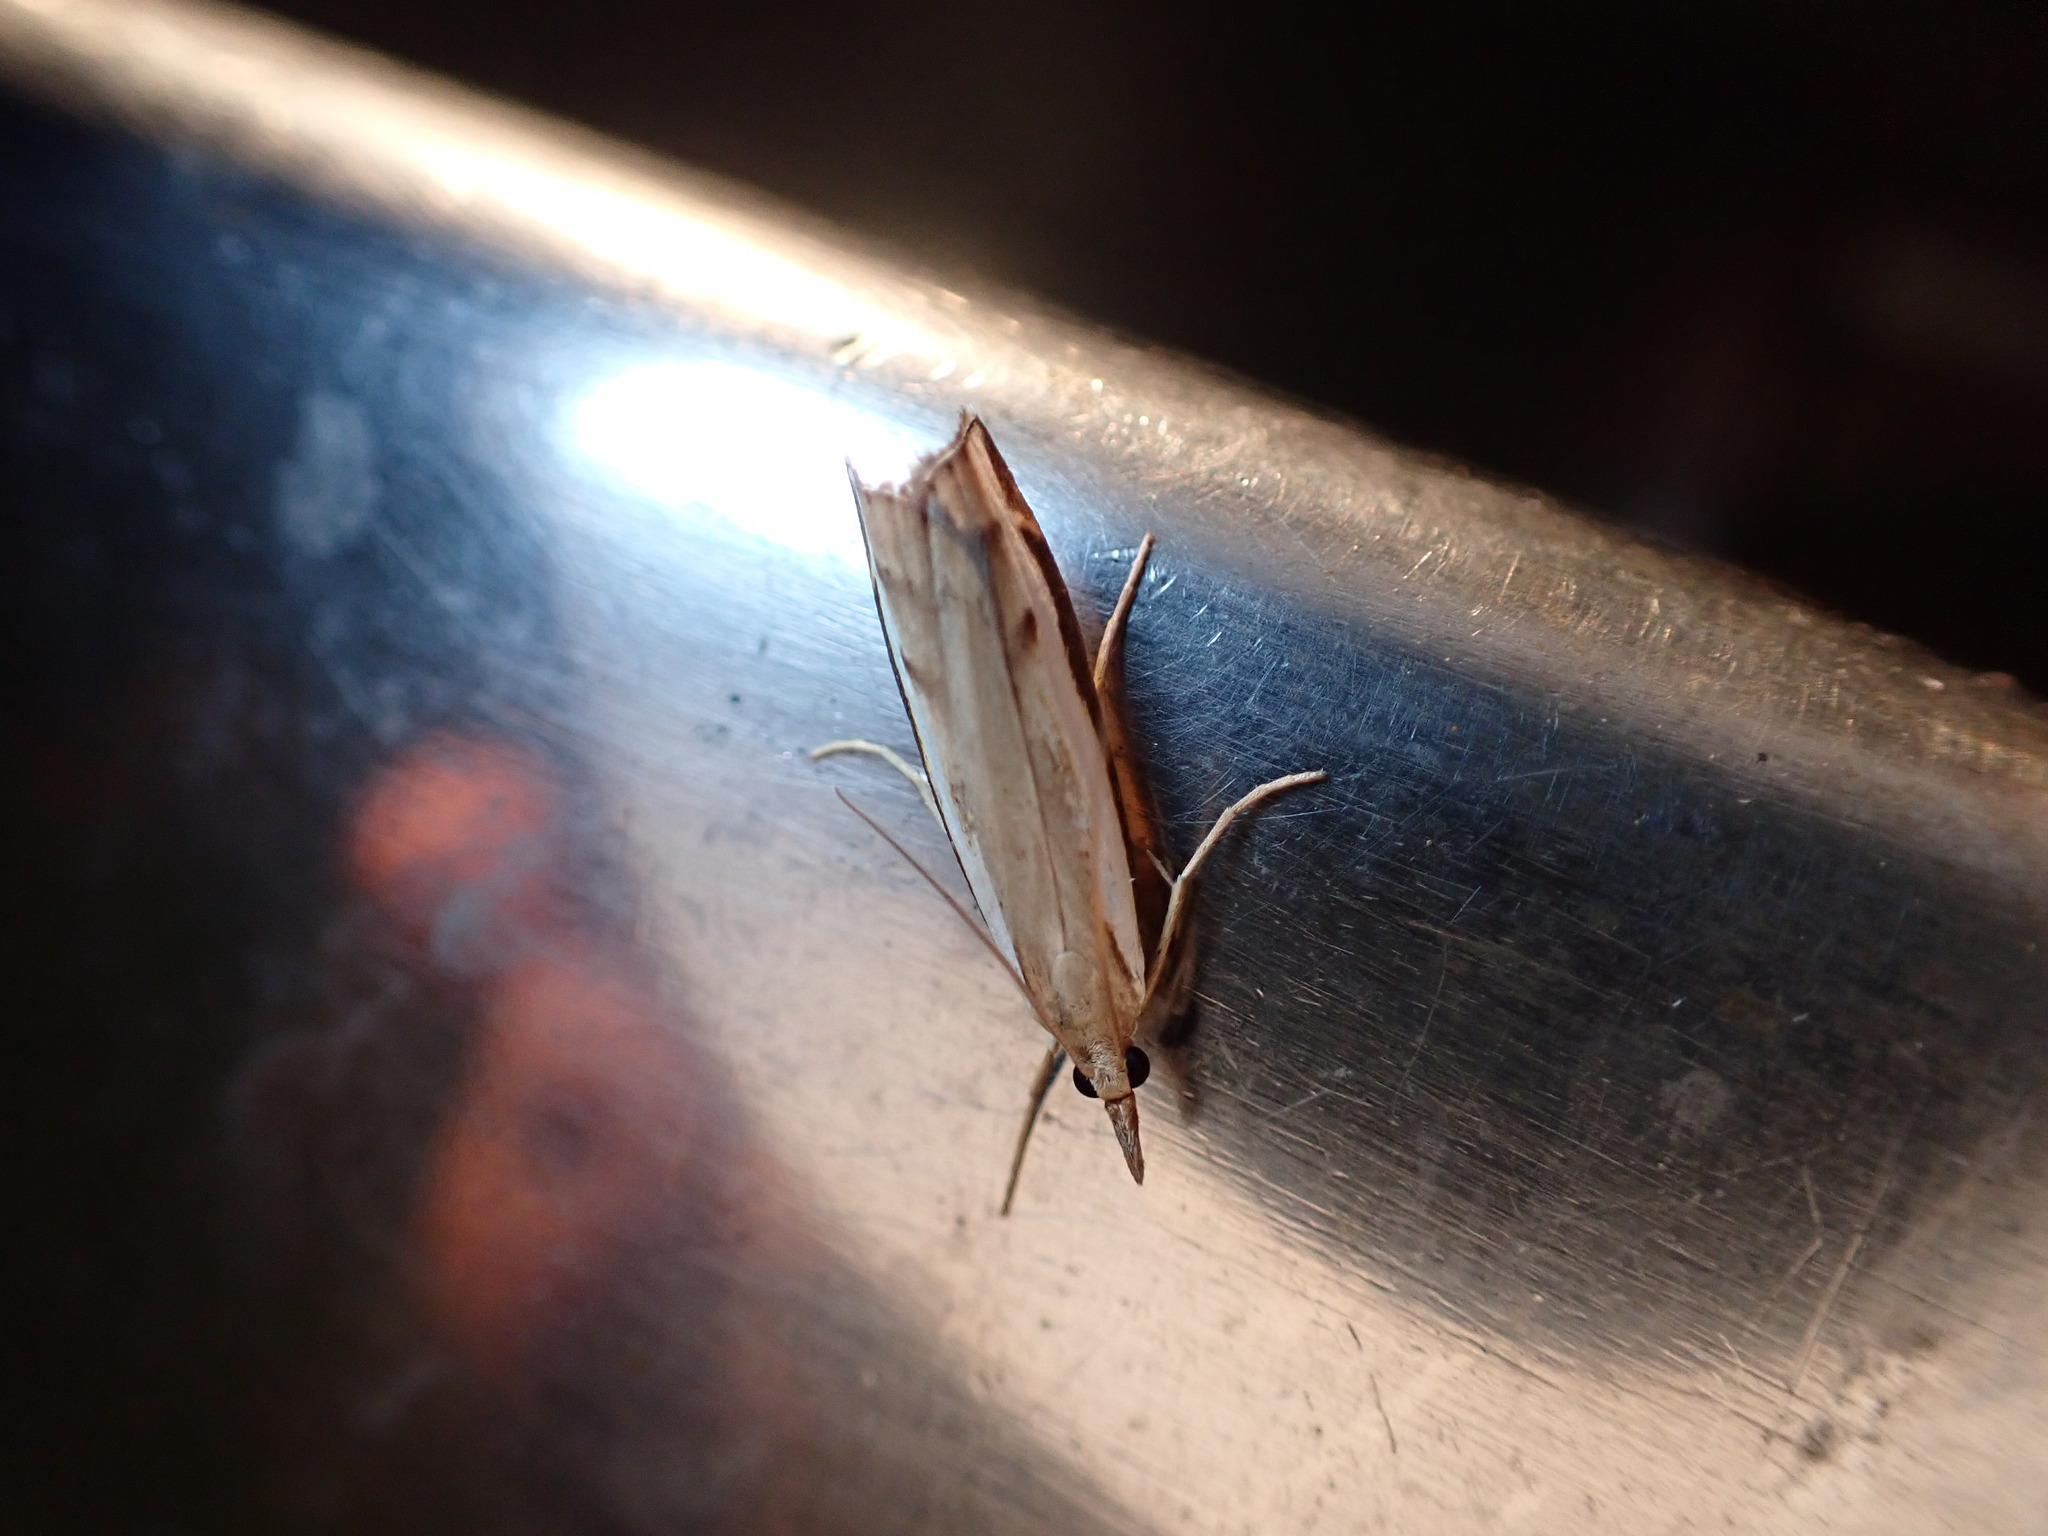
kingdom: Animalia
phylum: Arthropoda
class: Insecta
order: Lepidoptera
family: Crambidae
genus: Orocrambus
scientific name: Orocrambus flexuosellus
